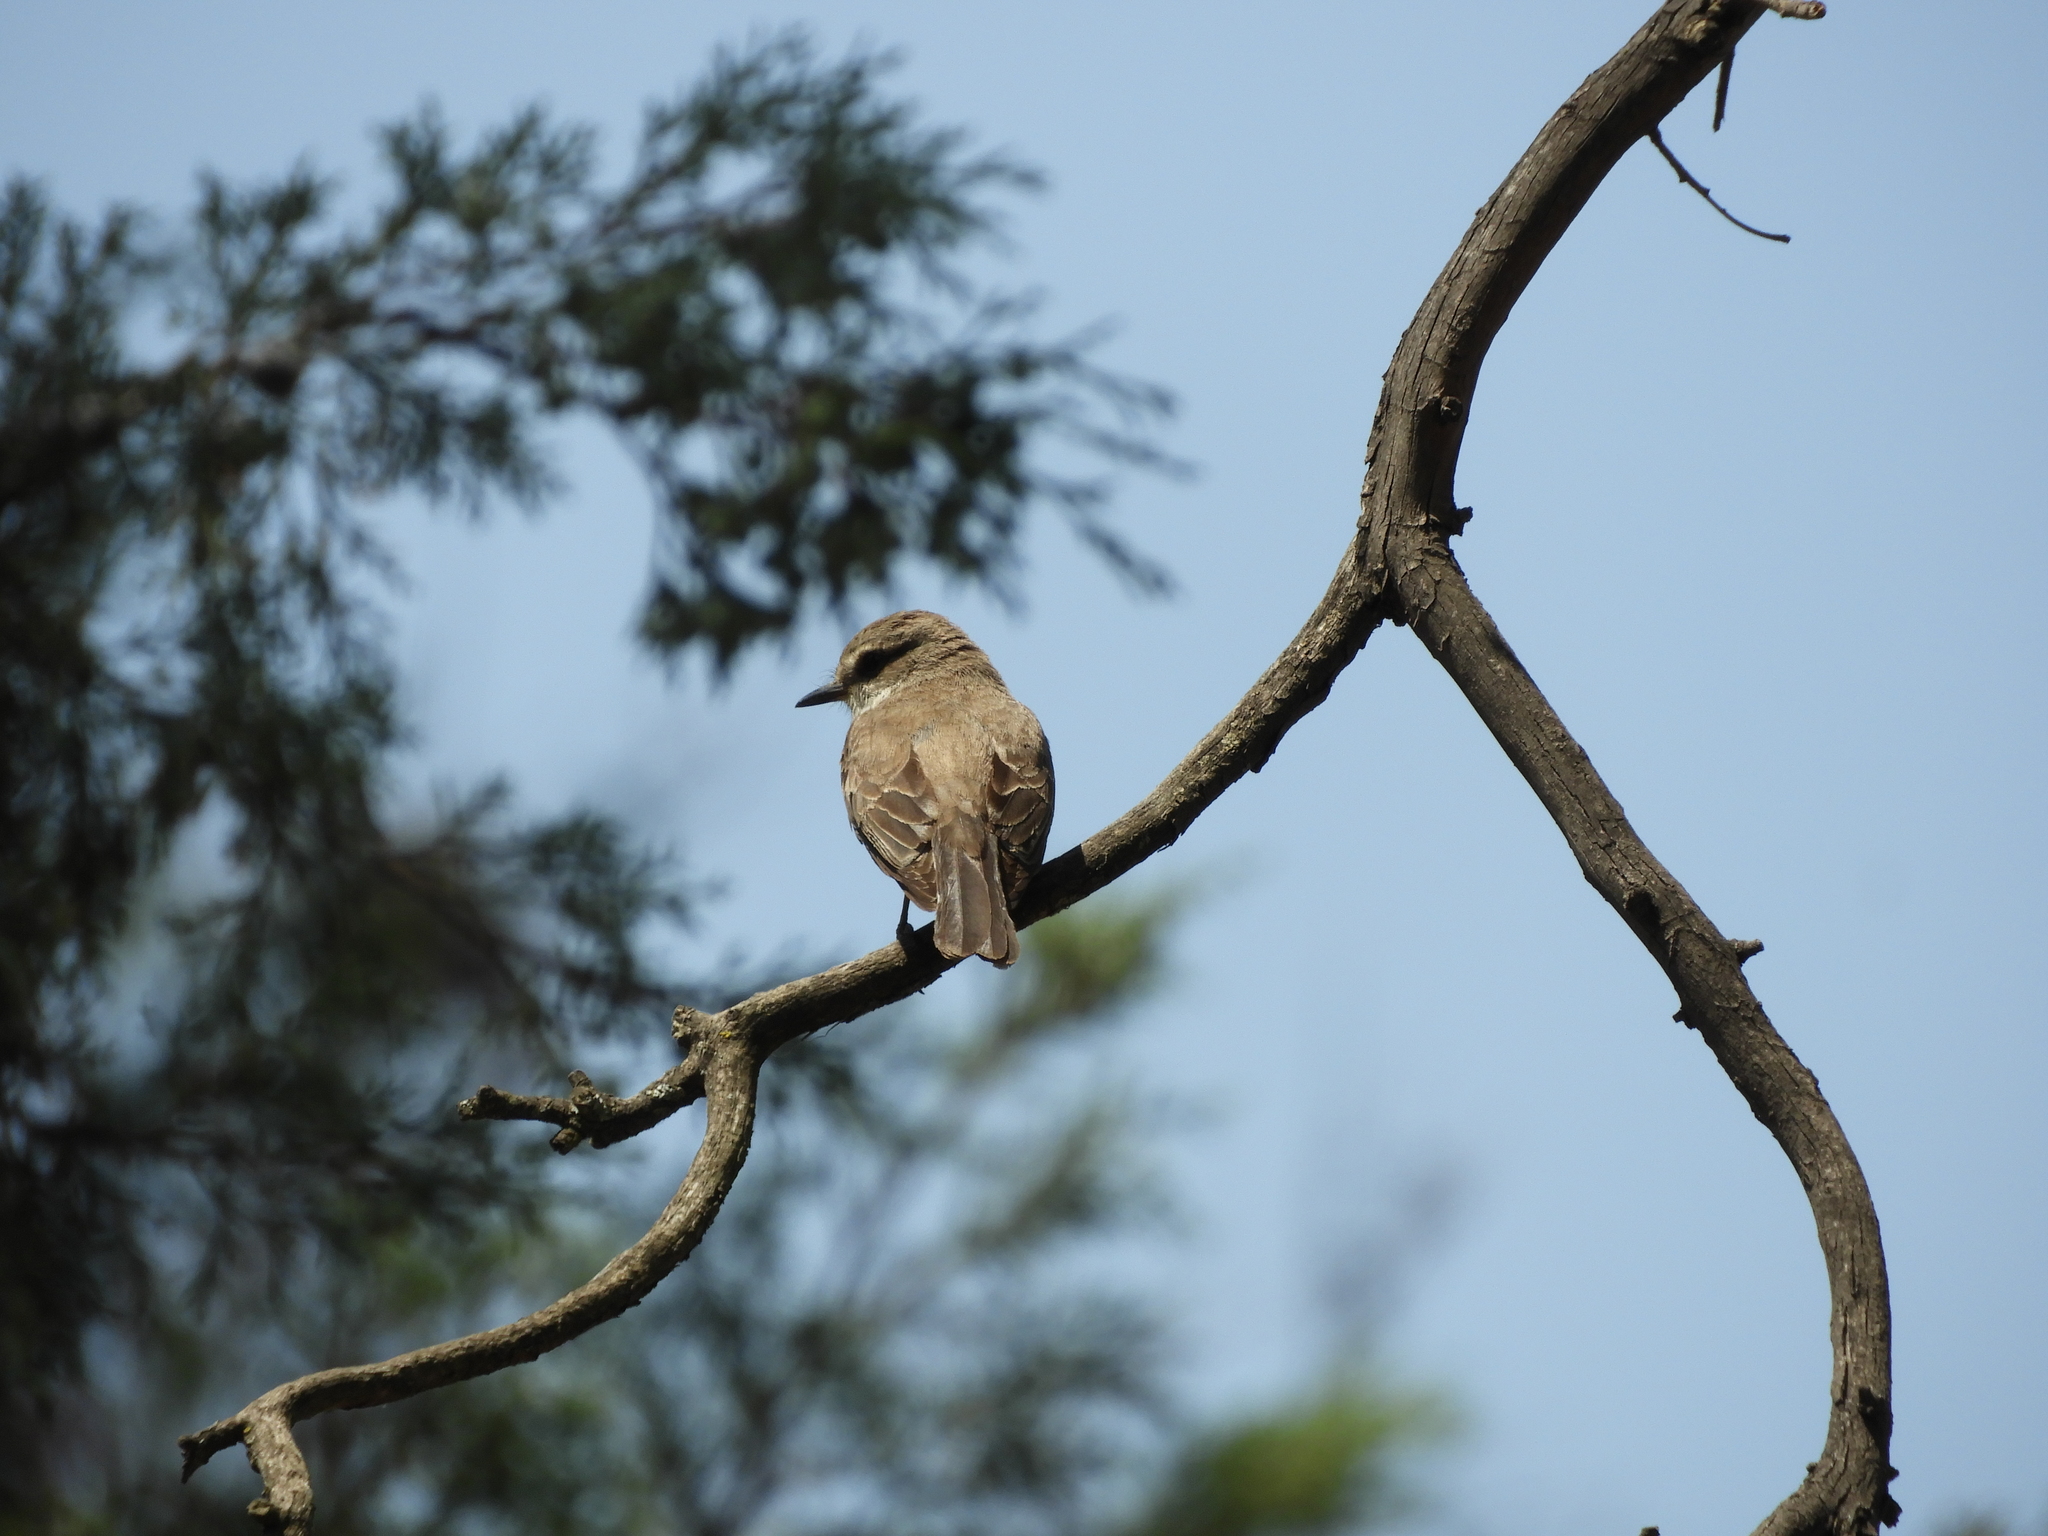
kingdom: Animalia
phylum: Chordata
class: Aves
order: Passeriformes
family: Tyrannidae
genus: Pyrocephalus
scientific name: Pyrocephalus rubinus
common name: Vermilion flycatcher
